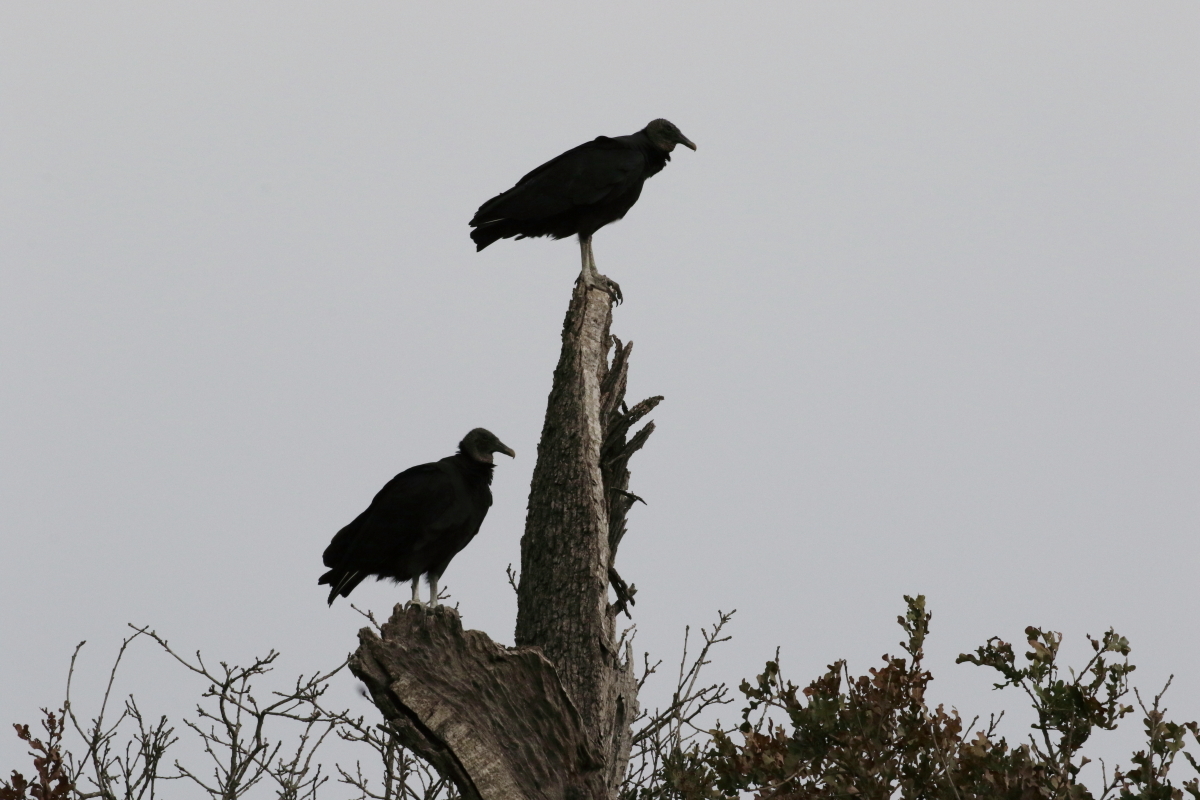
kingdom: Animalia
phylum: Chordata
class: Aves
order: Accipitriformes
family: Cathartidae
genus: Coragyps
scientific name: Coragyps atratus
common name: Black vulture
